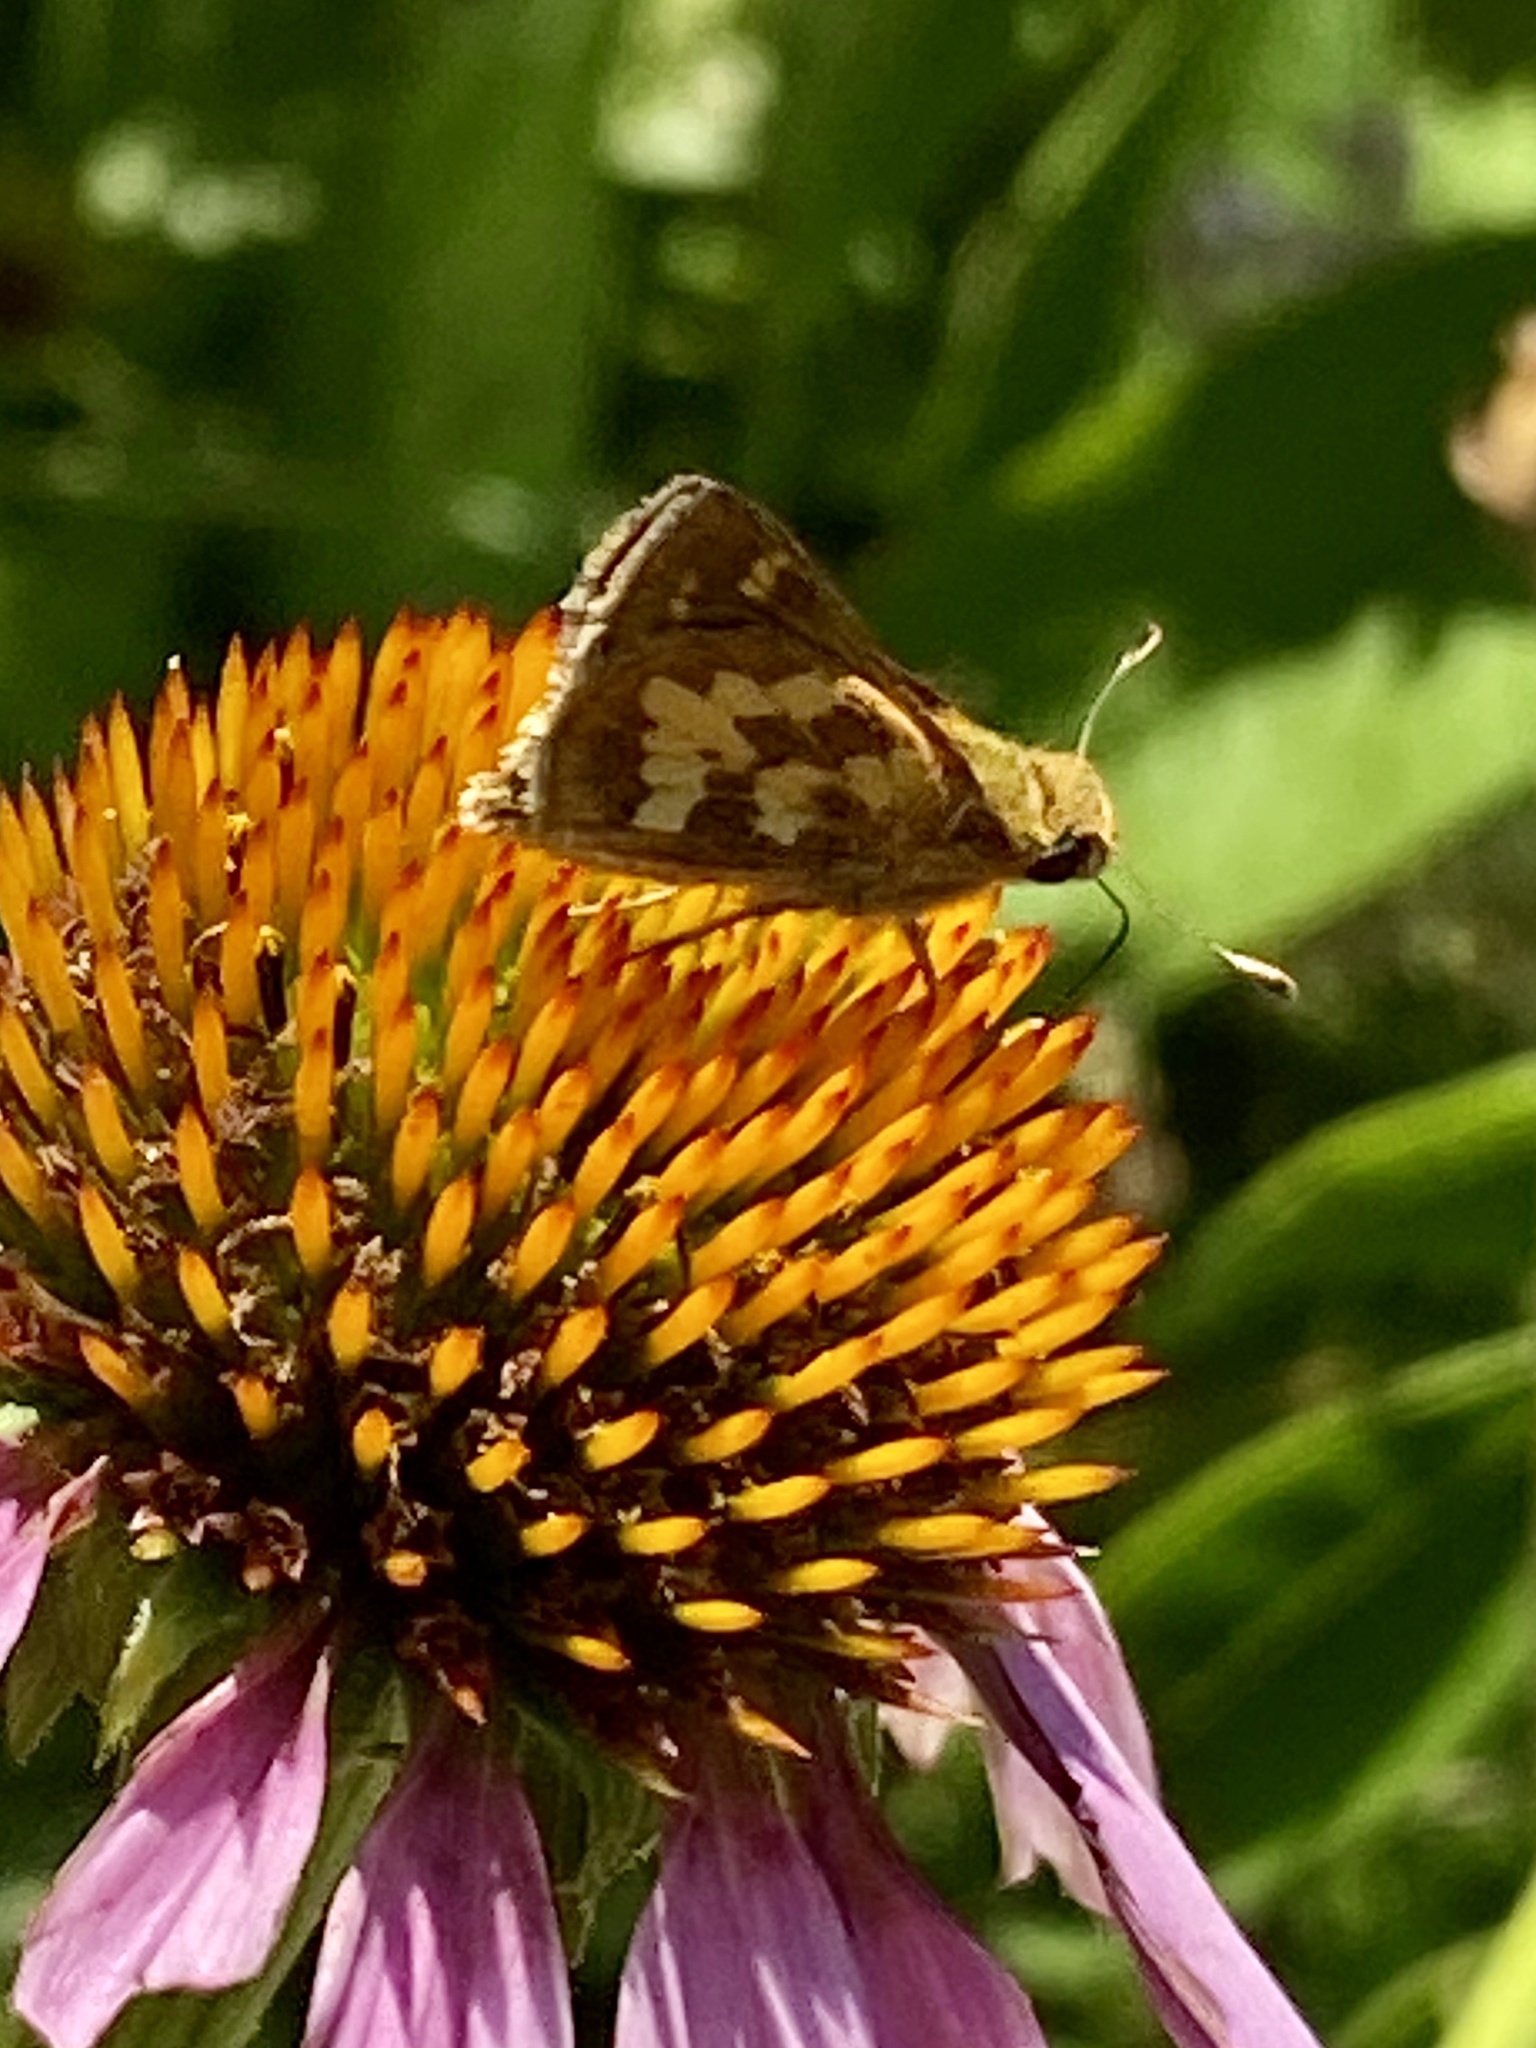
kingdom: Animalia
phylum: Arthropoda
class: Insecta
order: Lepidoptera
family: Hesperiidae
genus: Polites
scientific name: Polites coras
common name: Peck's skipper
